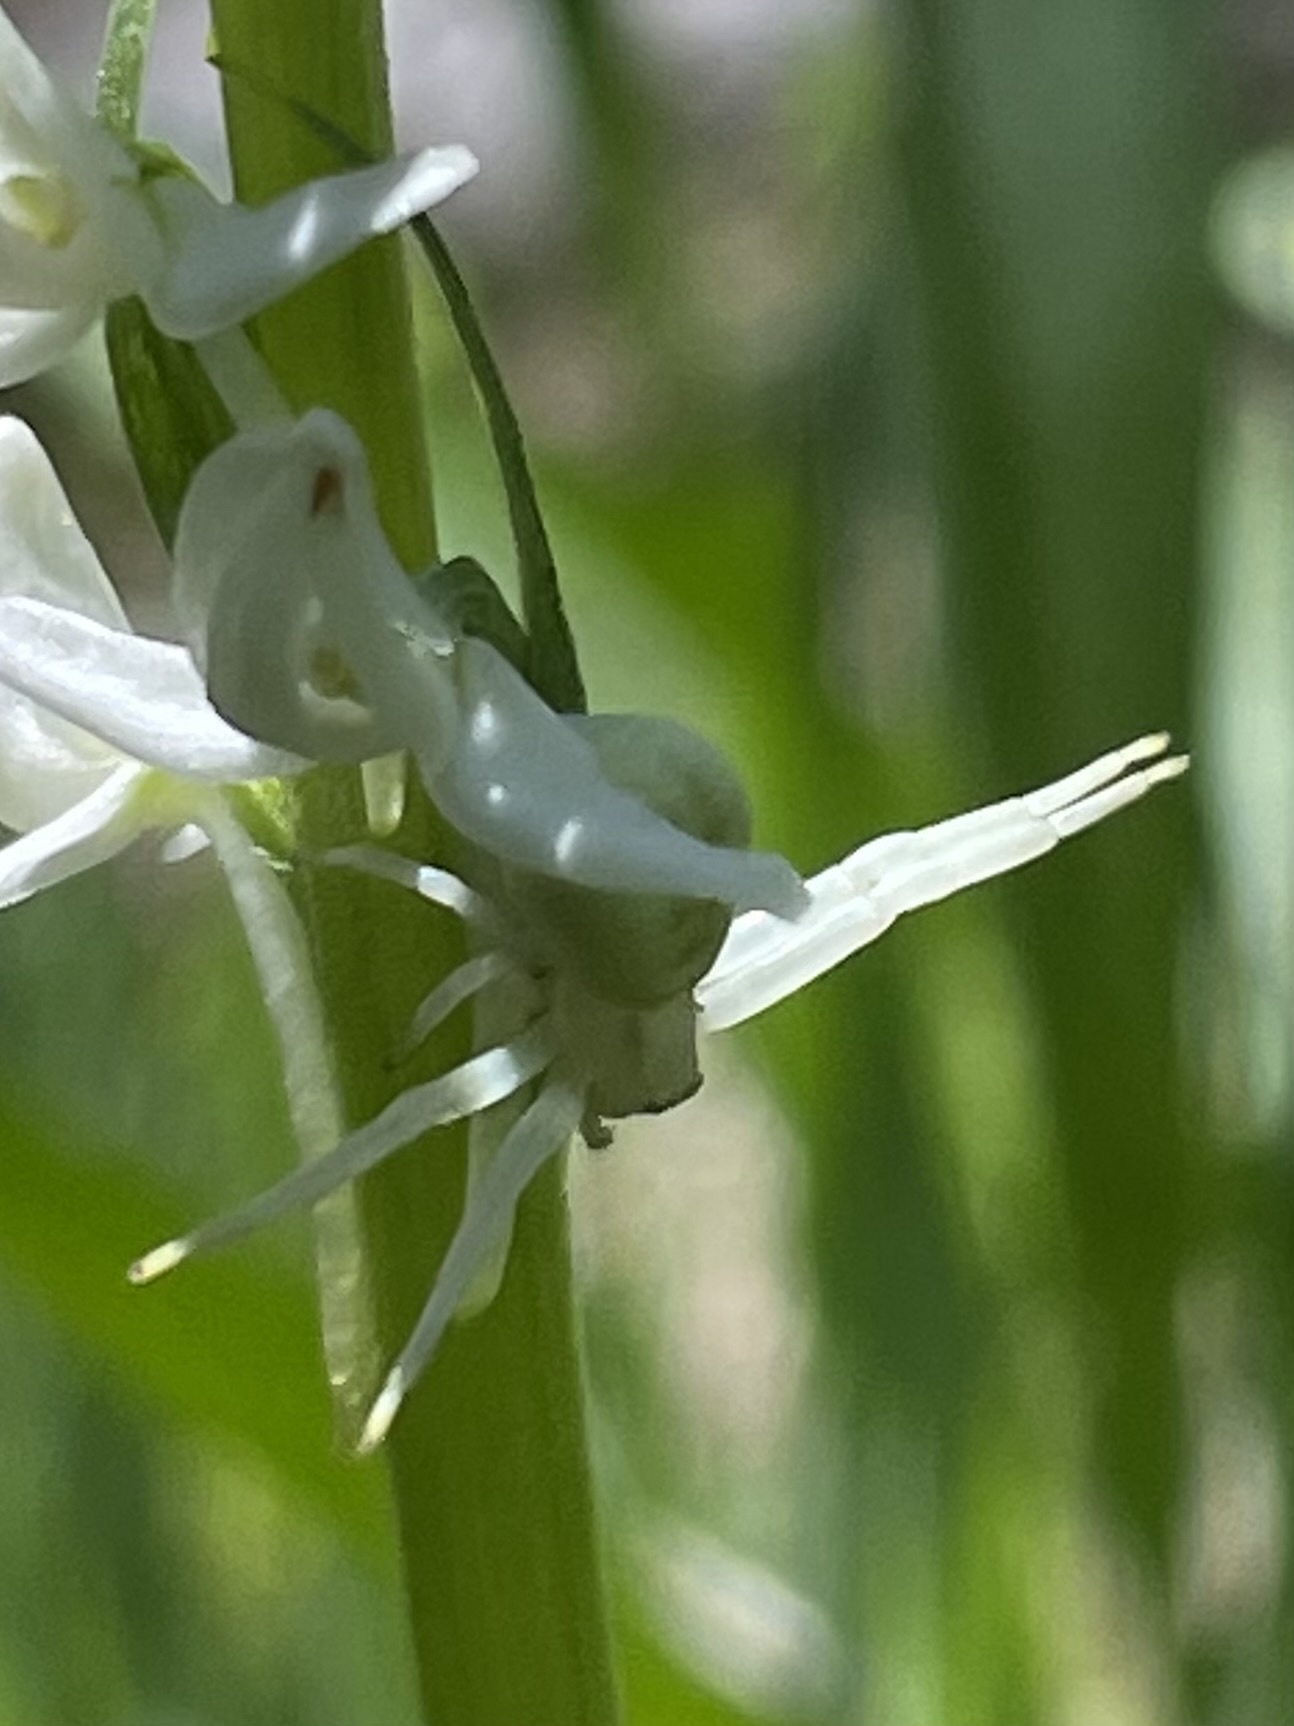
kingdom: Plantae
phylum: Tracheophyta
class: Liliopsida
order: Asparagales
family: Orchidaceae
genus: Platanthera
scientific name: Platanthera dilatata
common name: Bog candles
